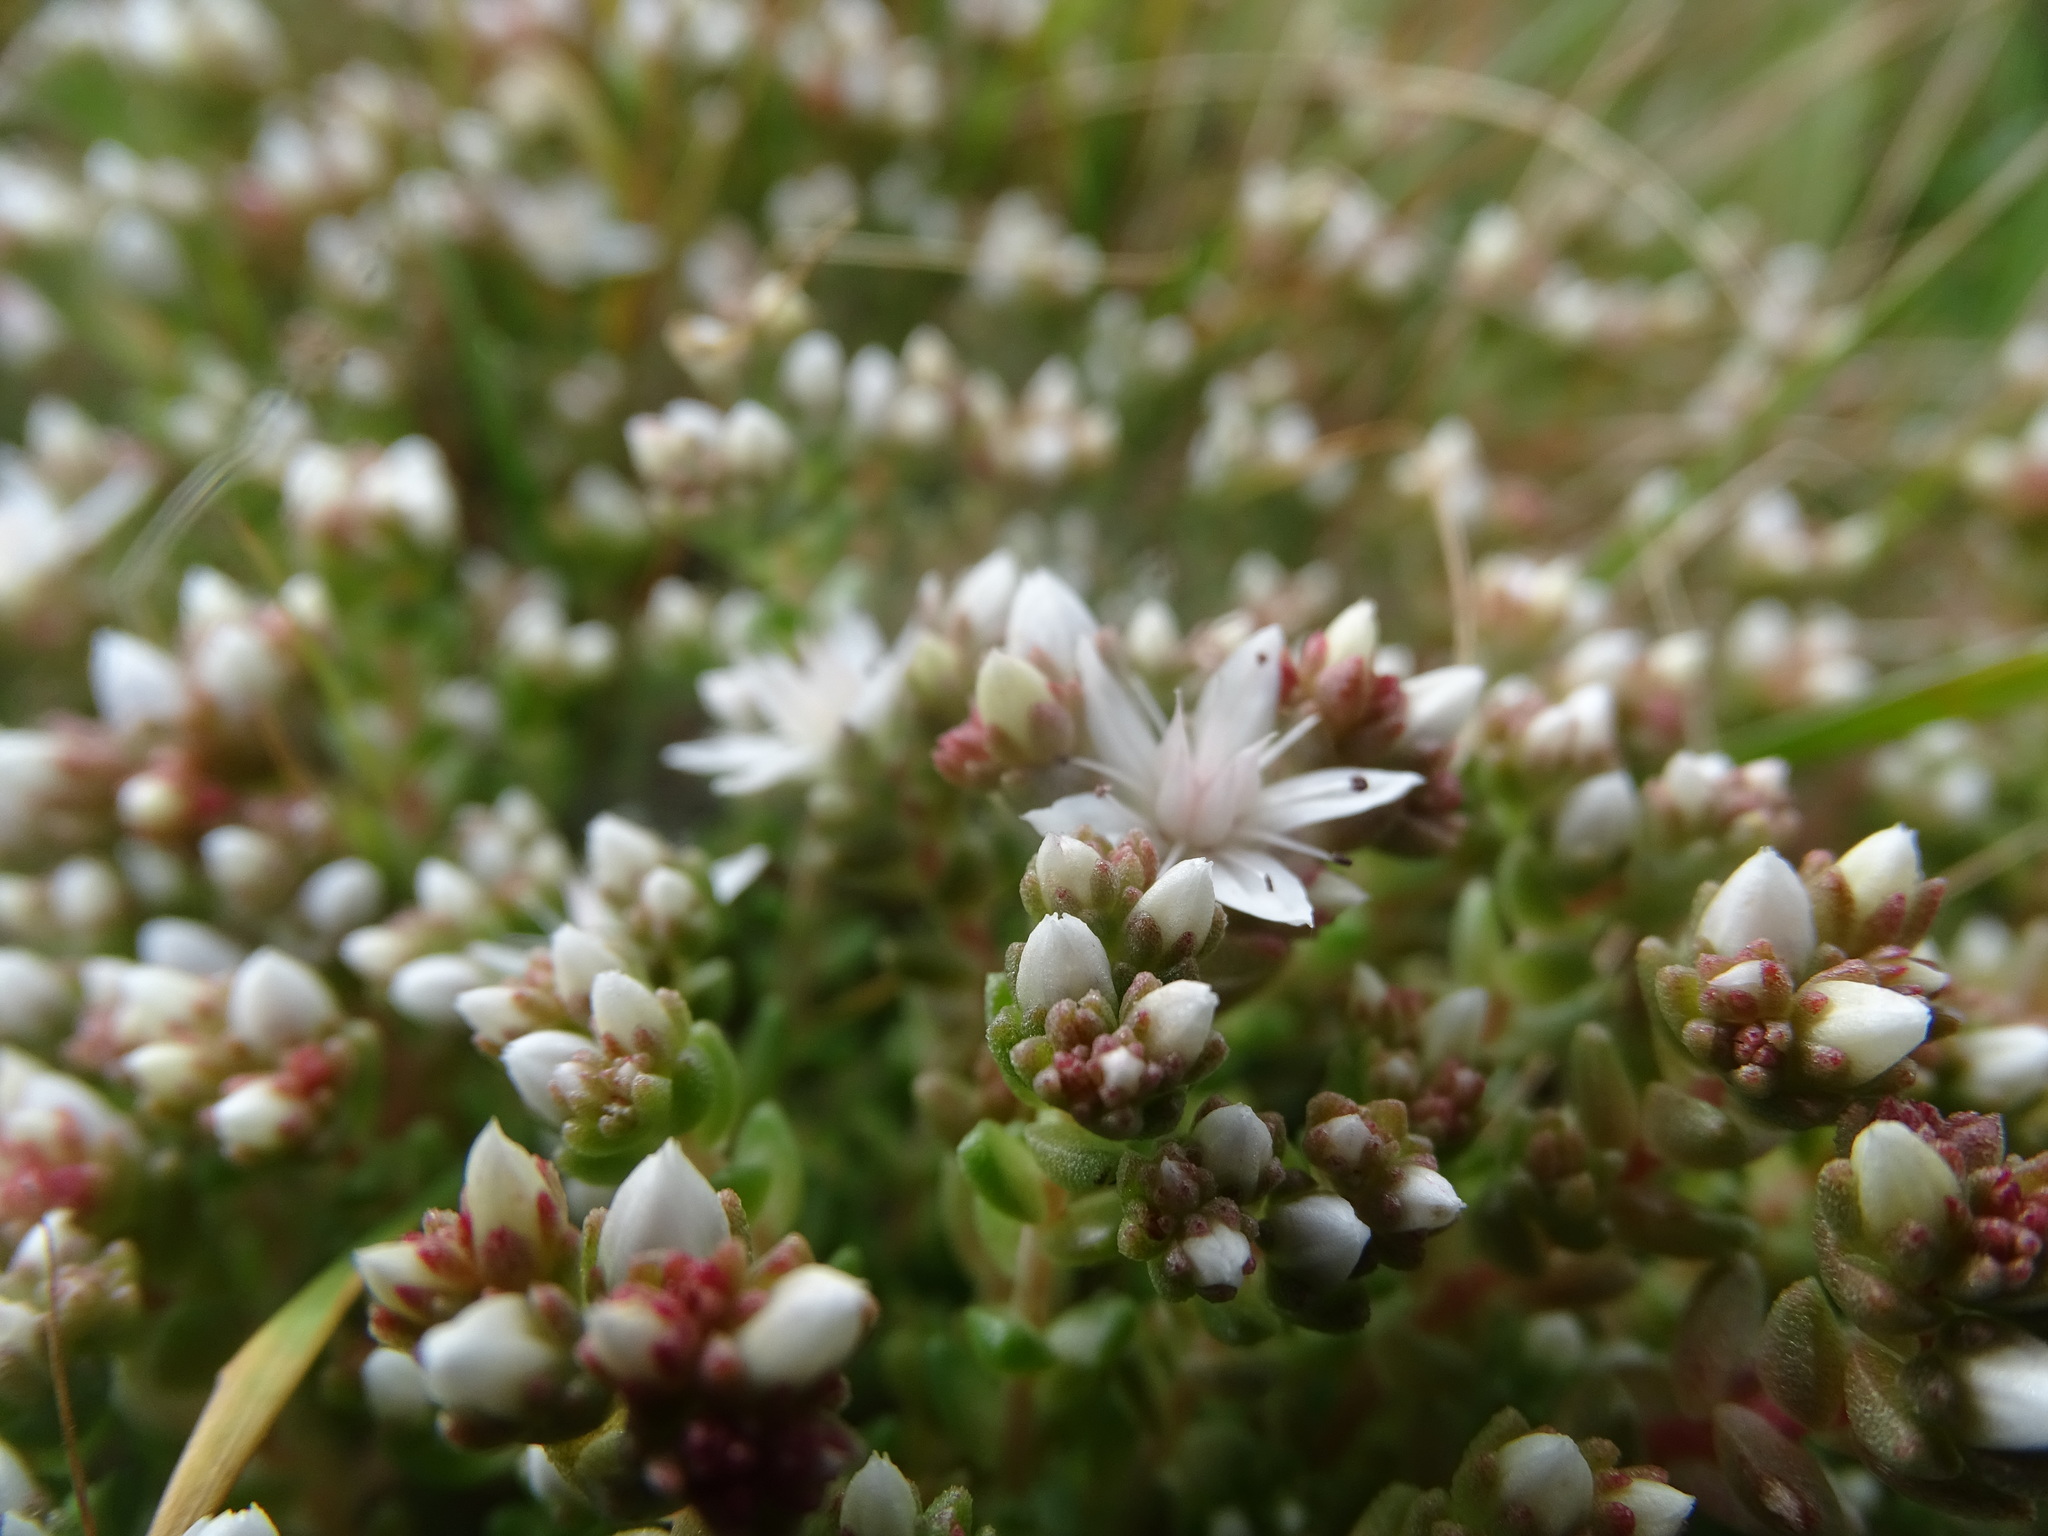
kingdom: Plantae
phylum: Tracheophyta
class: Magnoliopsida
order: Saxifragales
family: Crassulaceae
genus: Sedum
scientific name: Sedum anglicum
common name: English stonecrop
